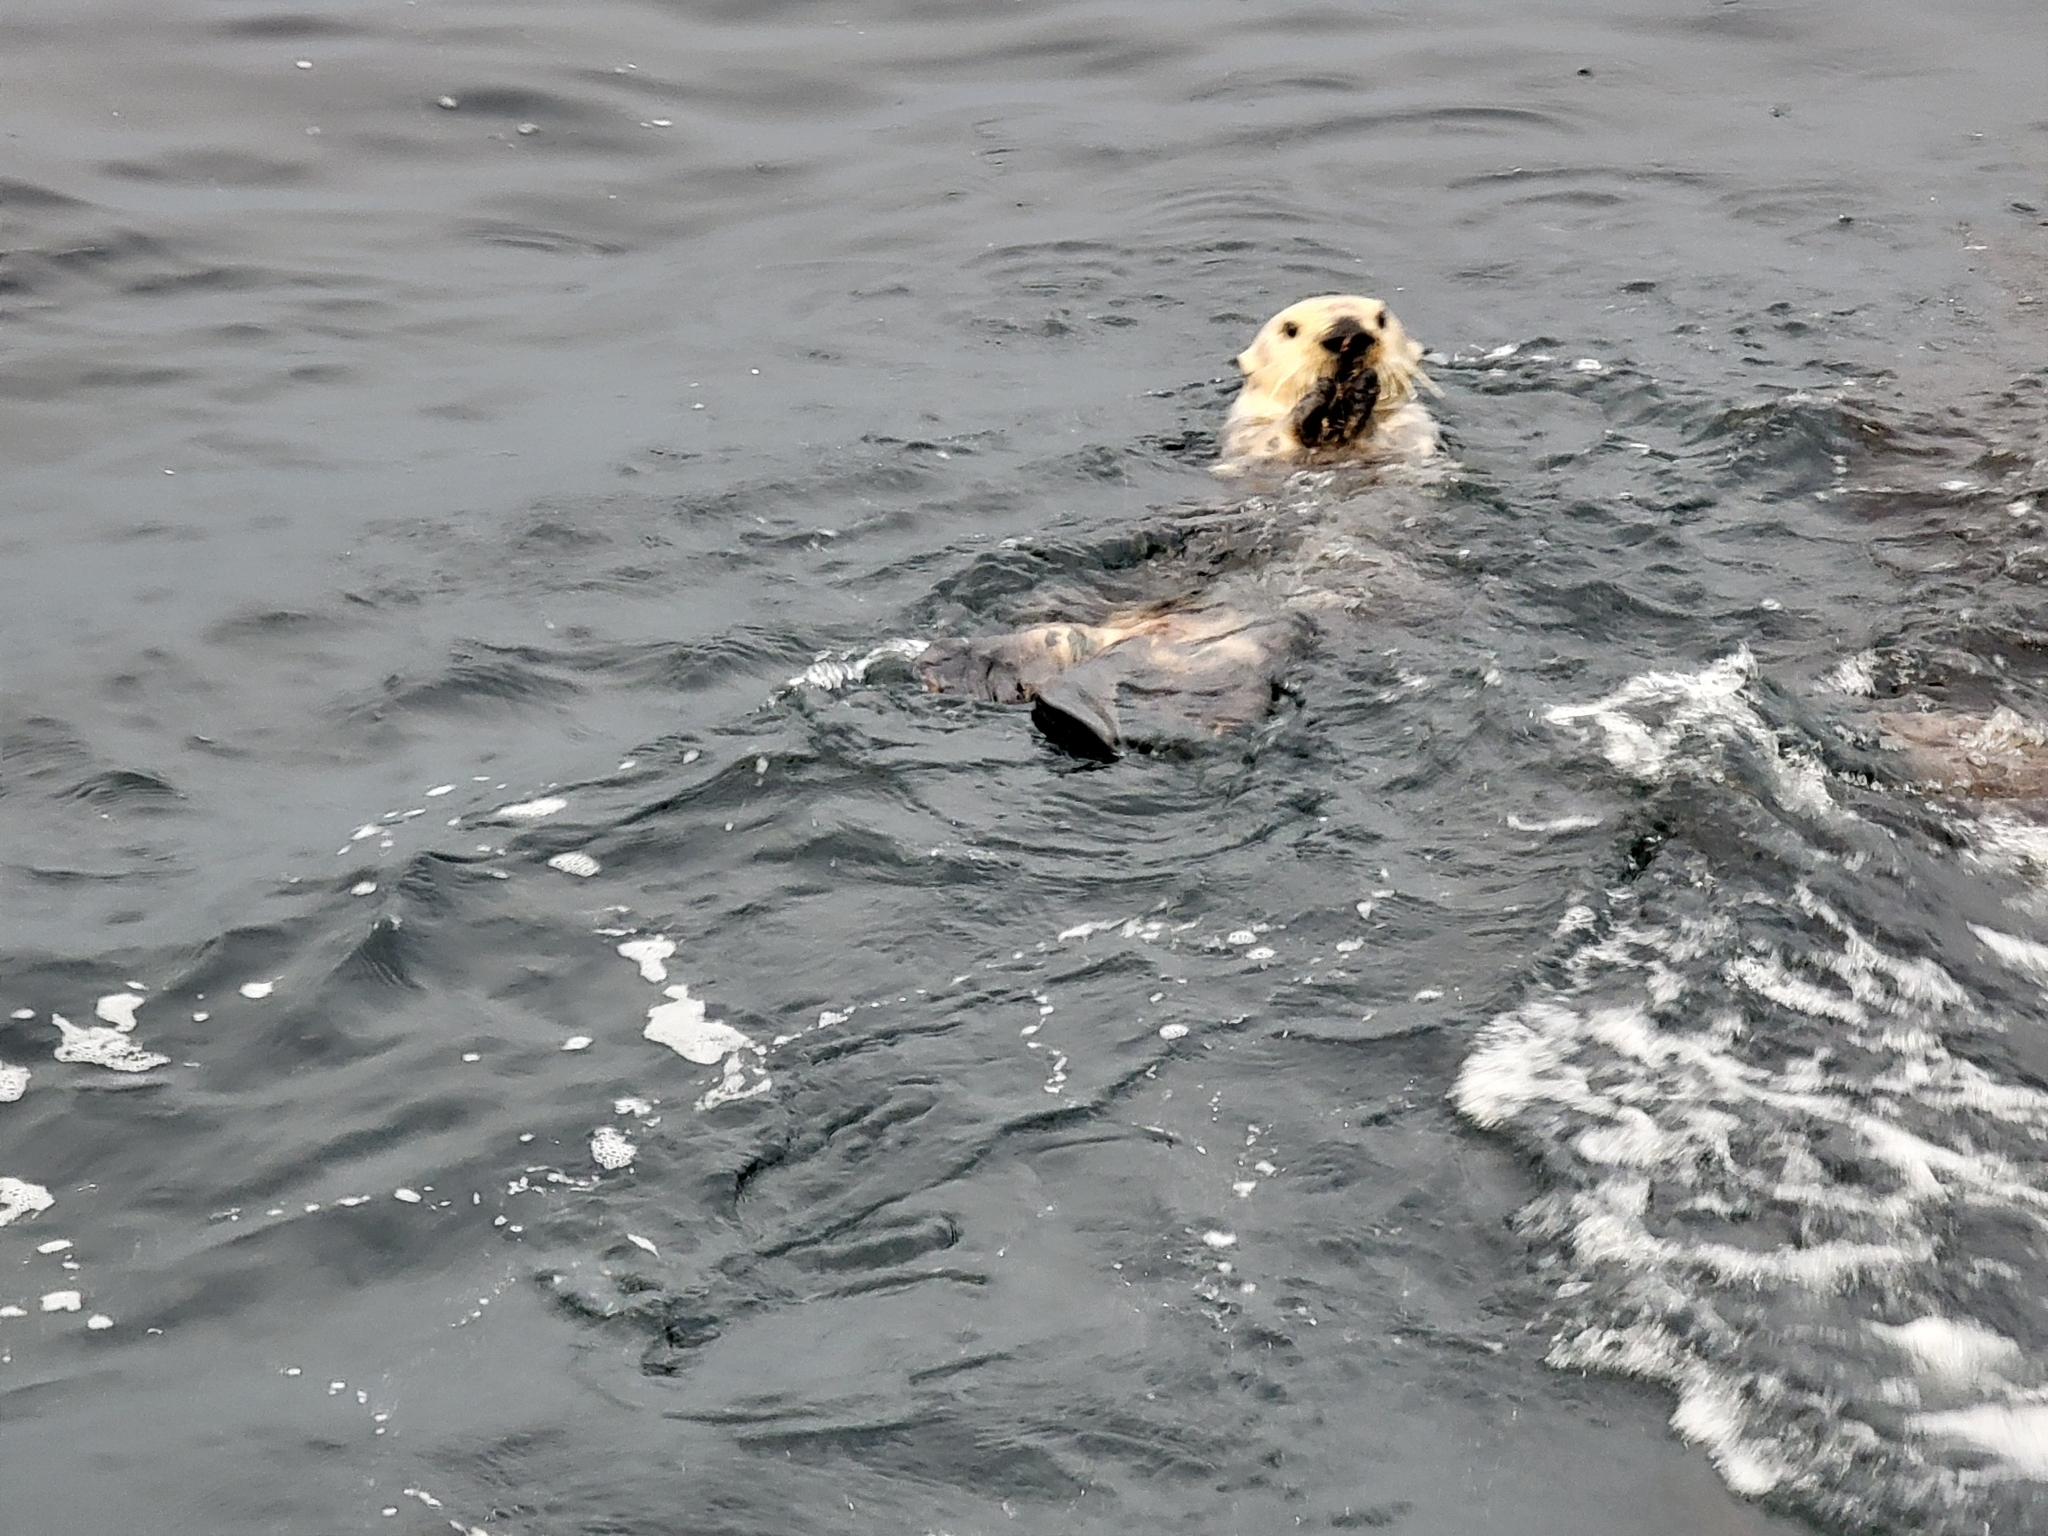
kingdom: Animalia
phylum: Chordata
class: Mammalia
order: Carnivora
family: Mustelidae
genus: Enhydra
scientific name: Enhydra lutris
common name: Sea otter
